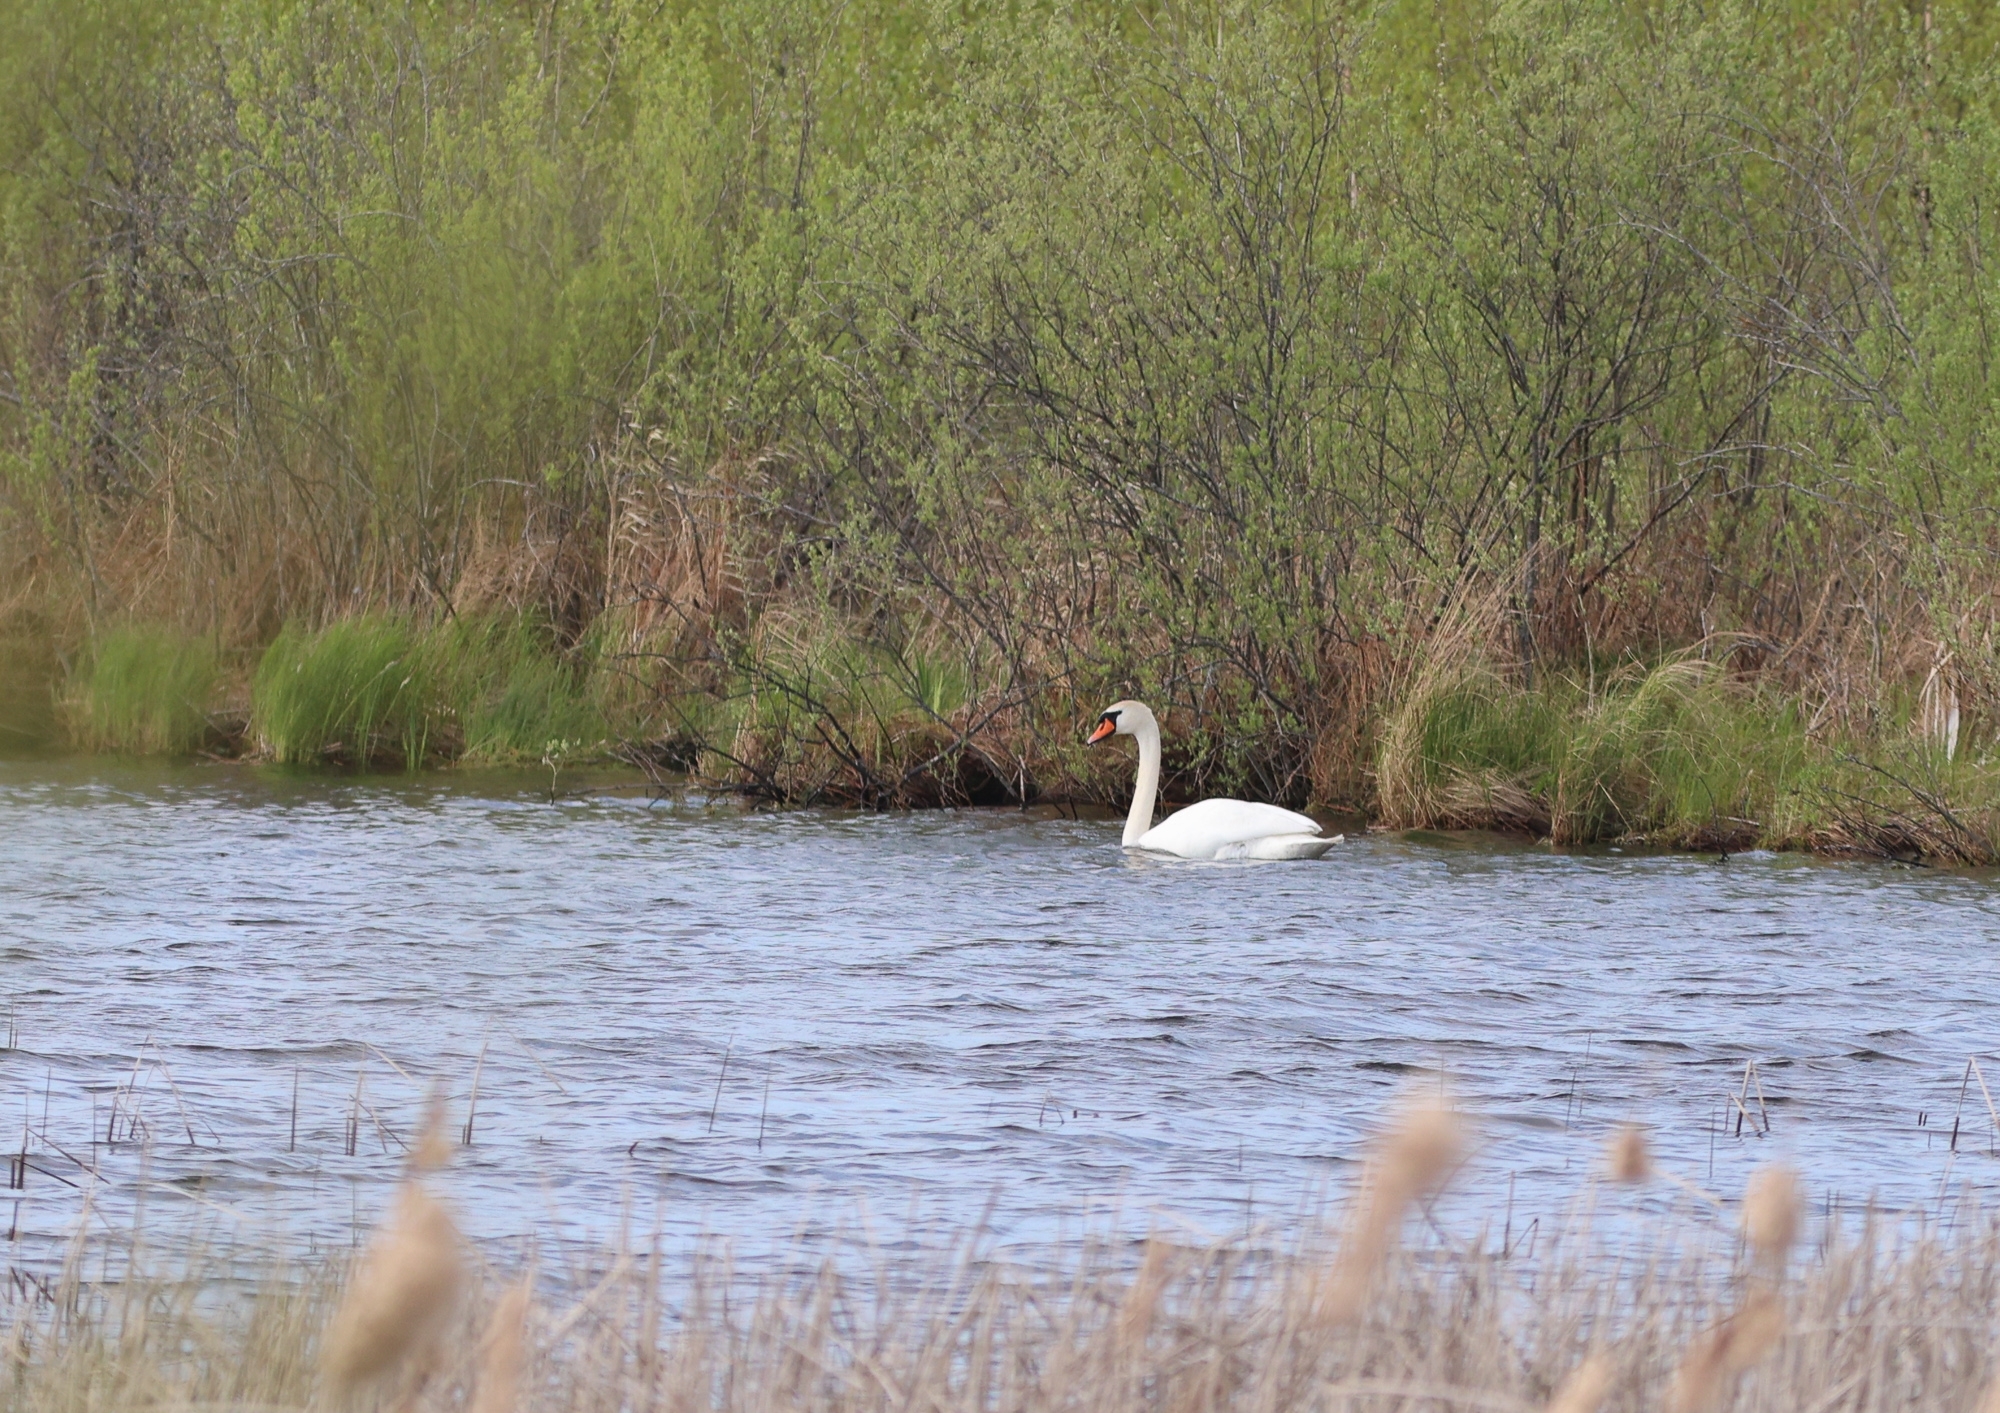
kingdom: Animalia
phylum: Chordata
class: Aves
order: Anseriformes
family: Anatidae
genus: Cygnus
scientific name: Cygnus olor
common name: Mute swan
